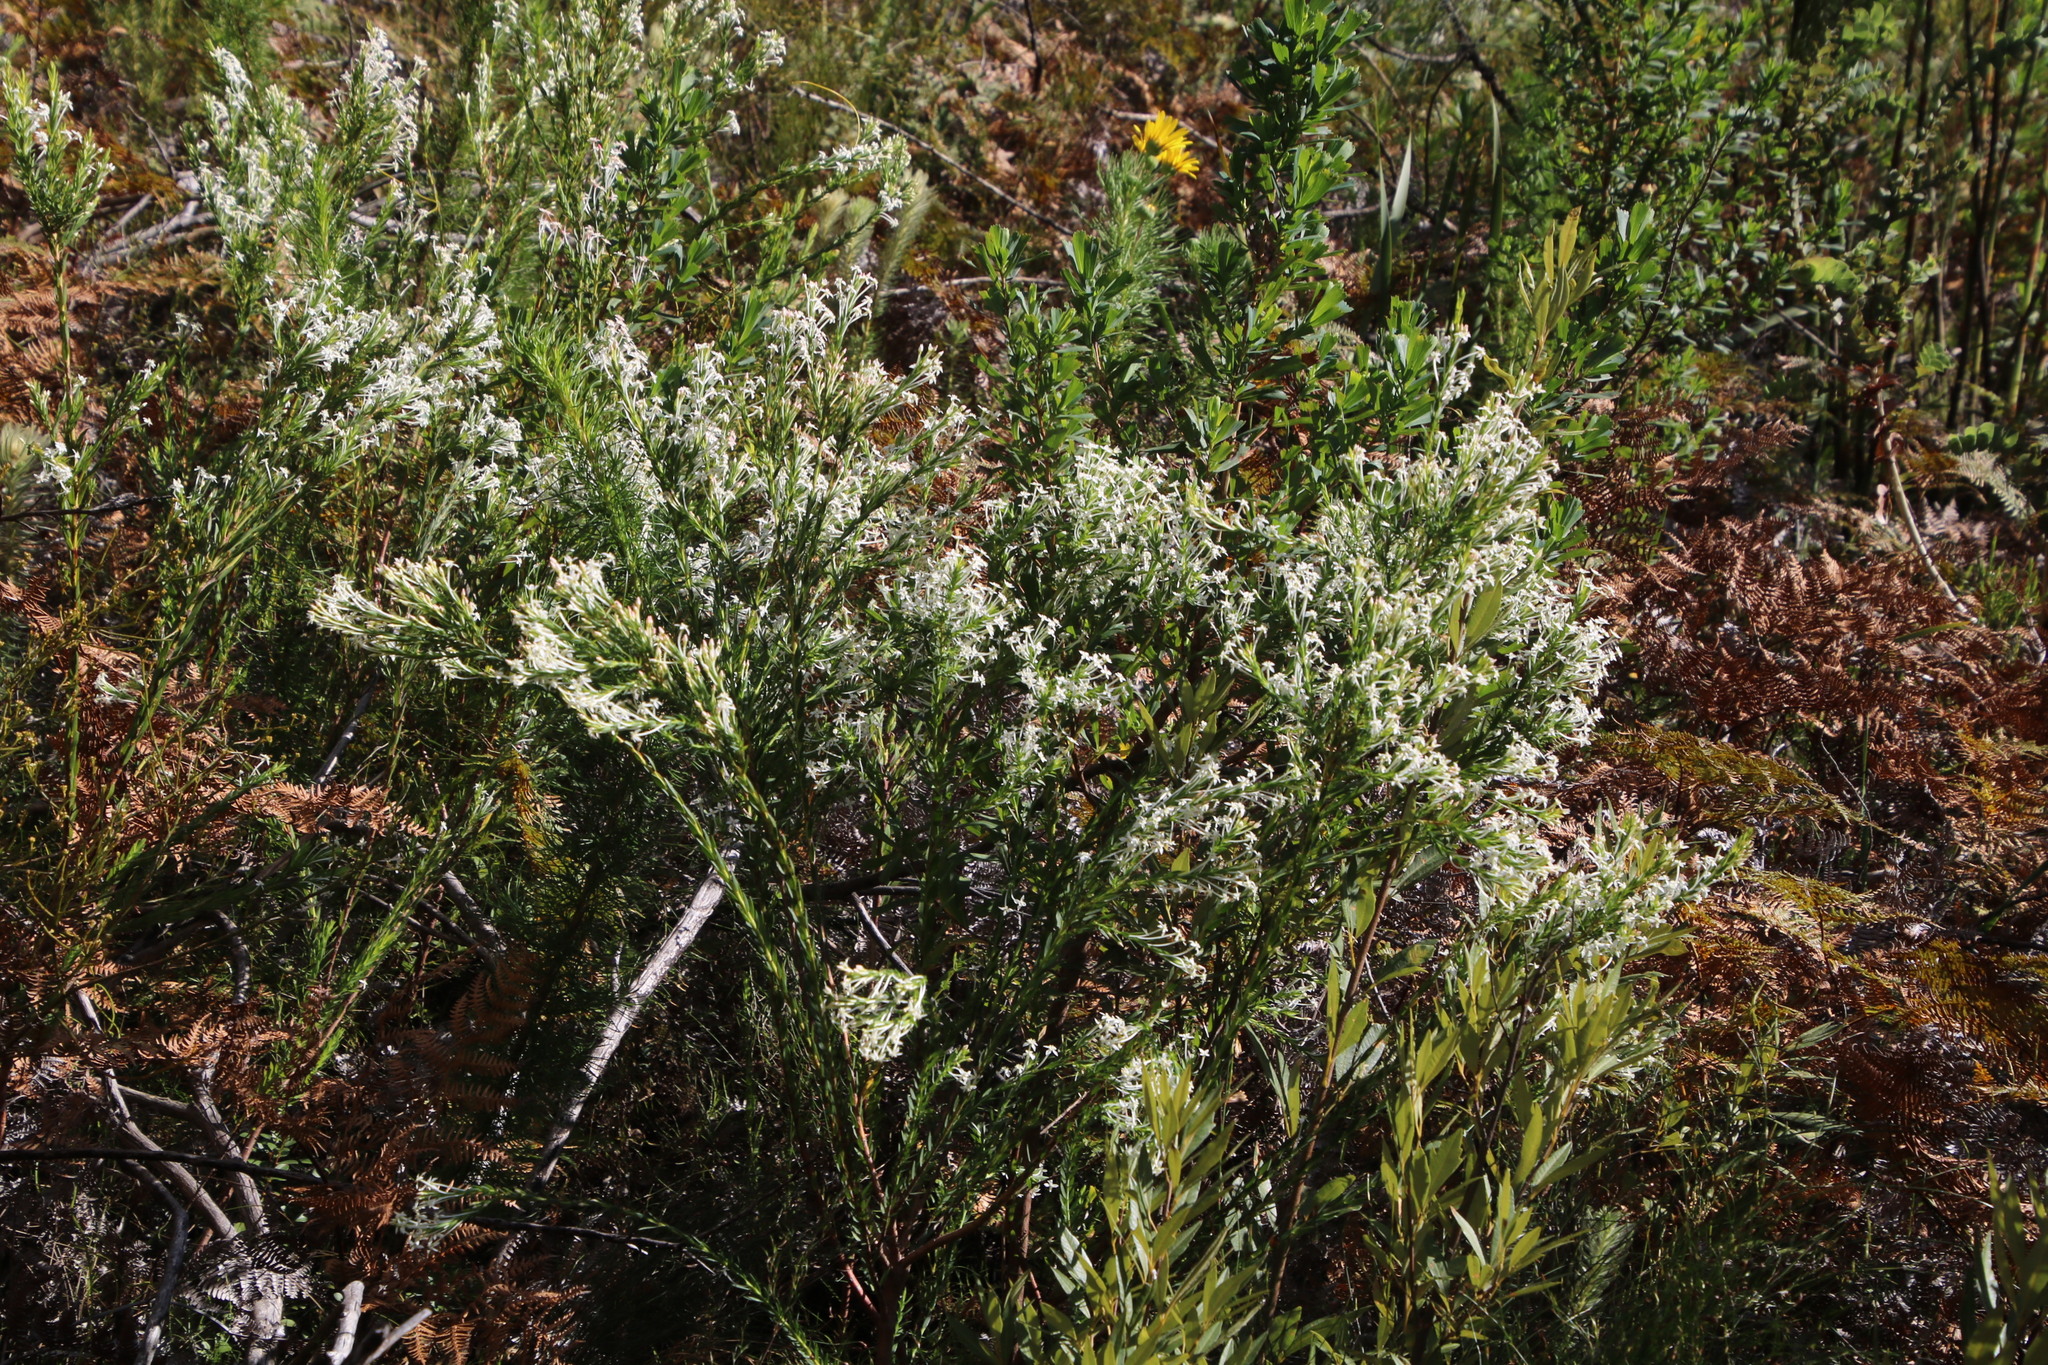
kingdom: Plantae
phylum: Tracheophyta
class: Magnoliopsida
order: Malvales
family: Thymelaeaceae
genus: Struthiola
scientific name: Struthiola myrsinites
